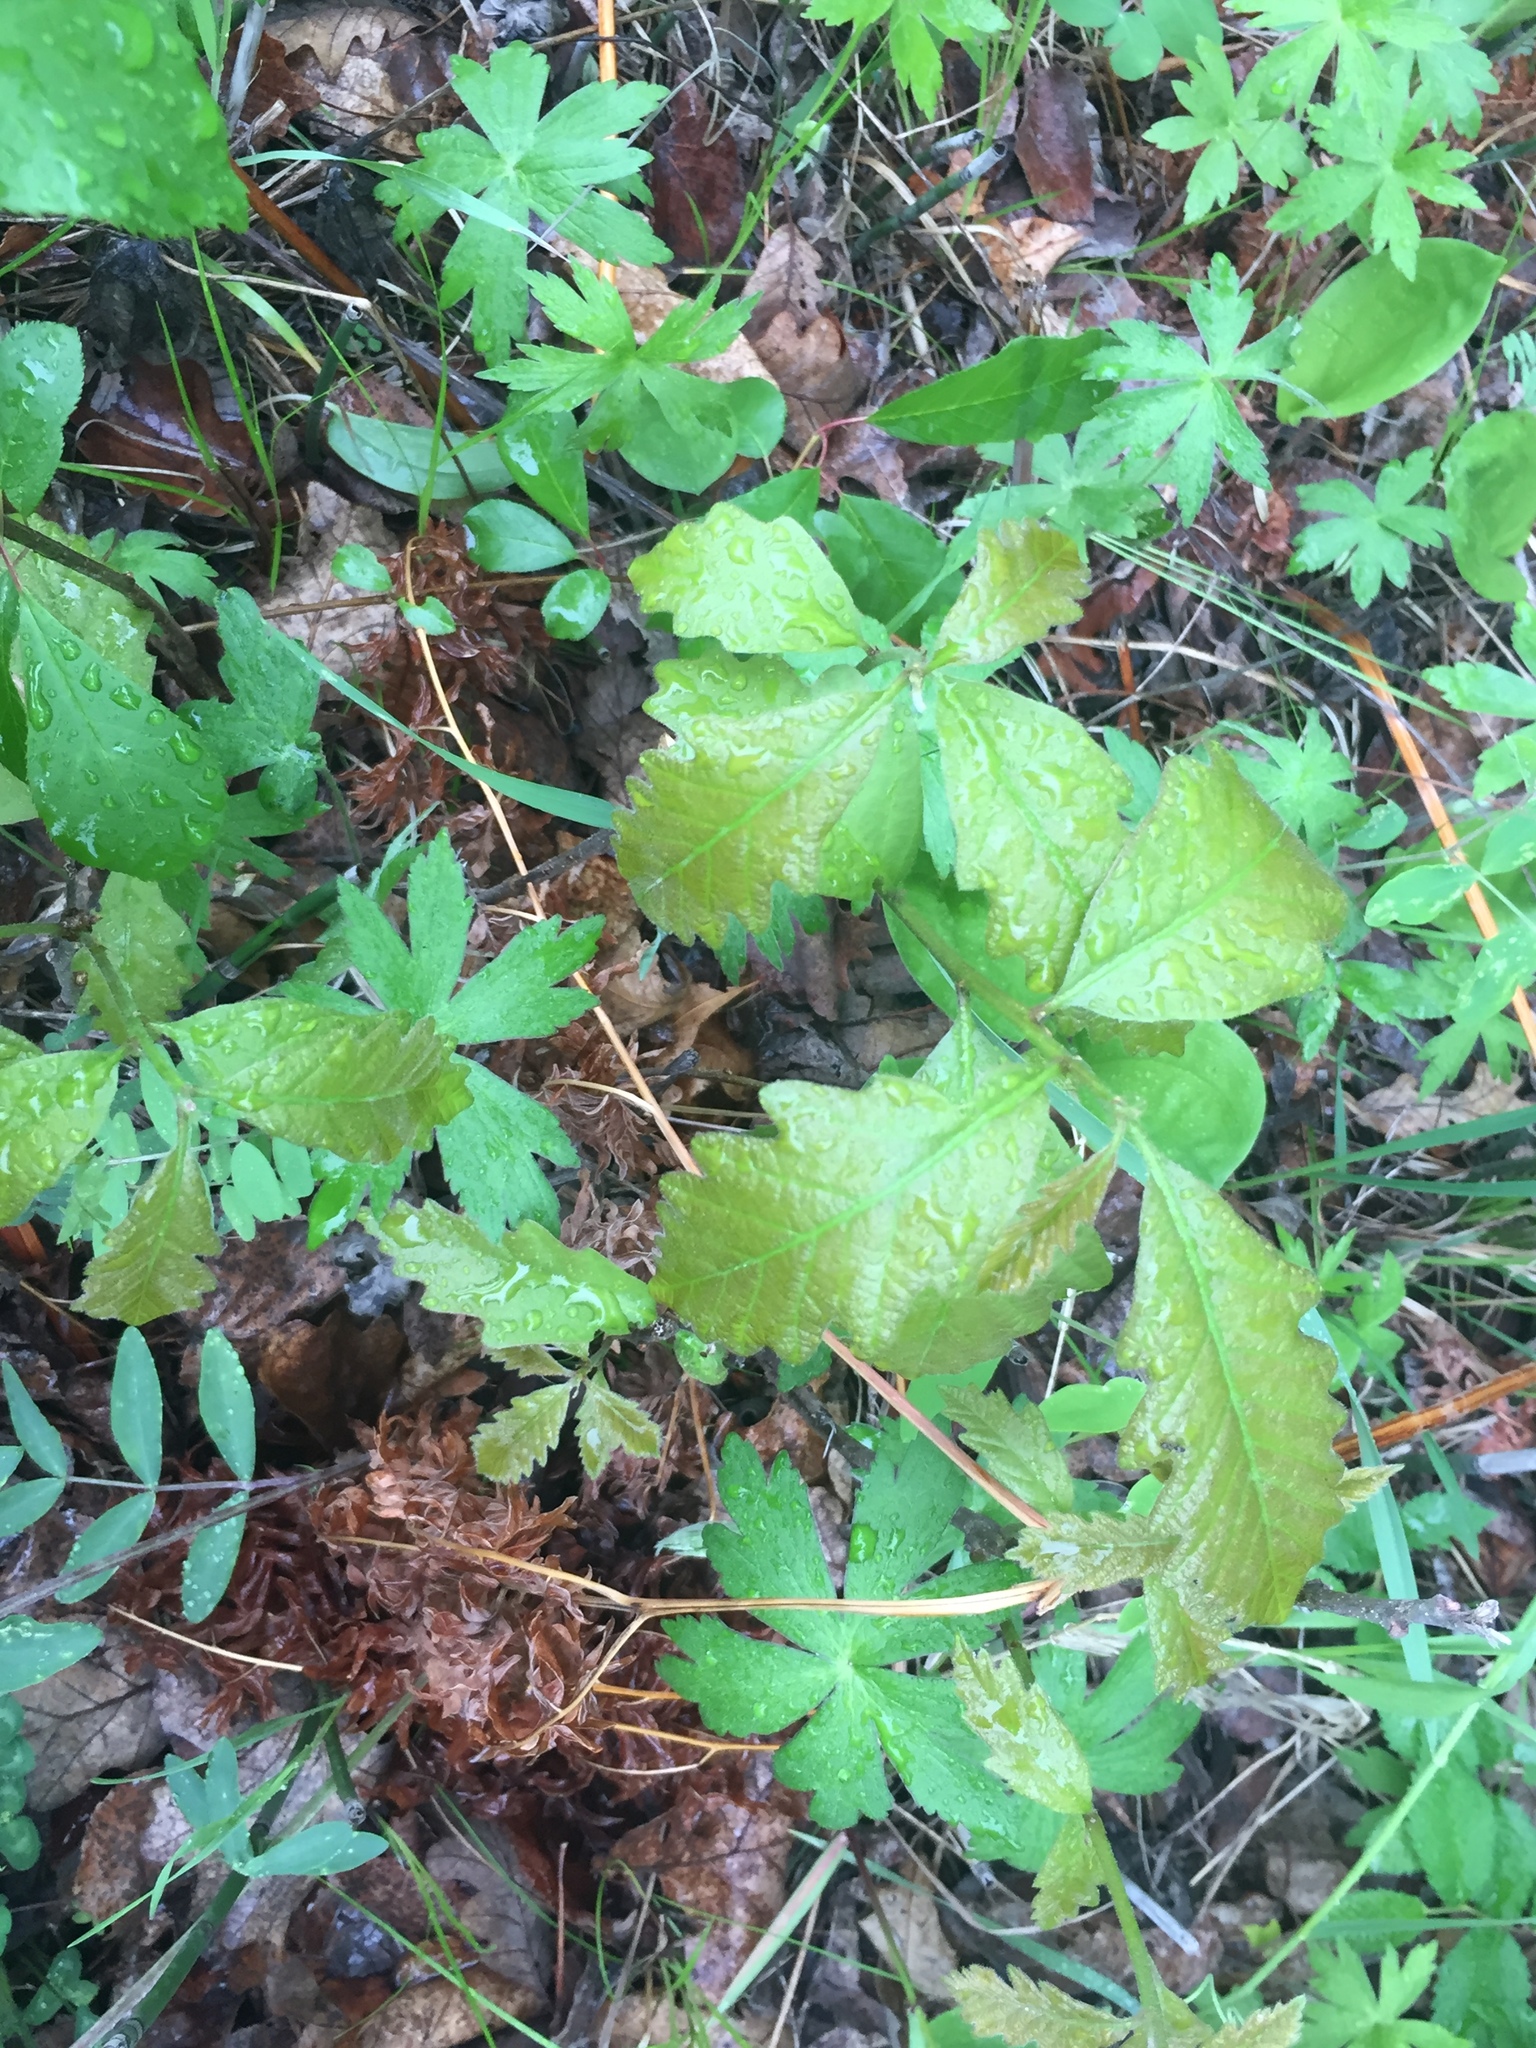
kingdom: Plantae
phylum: Tracheophyta
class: Magnoliopsida
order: Fagales
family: Fagaceae
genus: Quercus
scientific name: Quercus macrocarpa
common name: Bur oak
